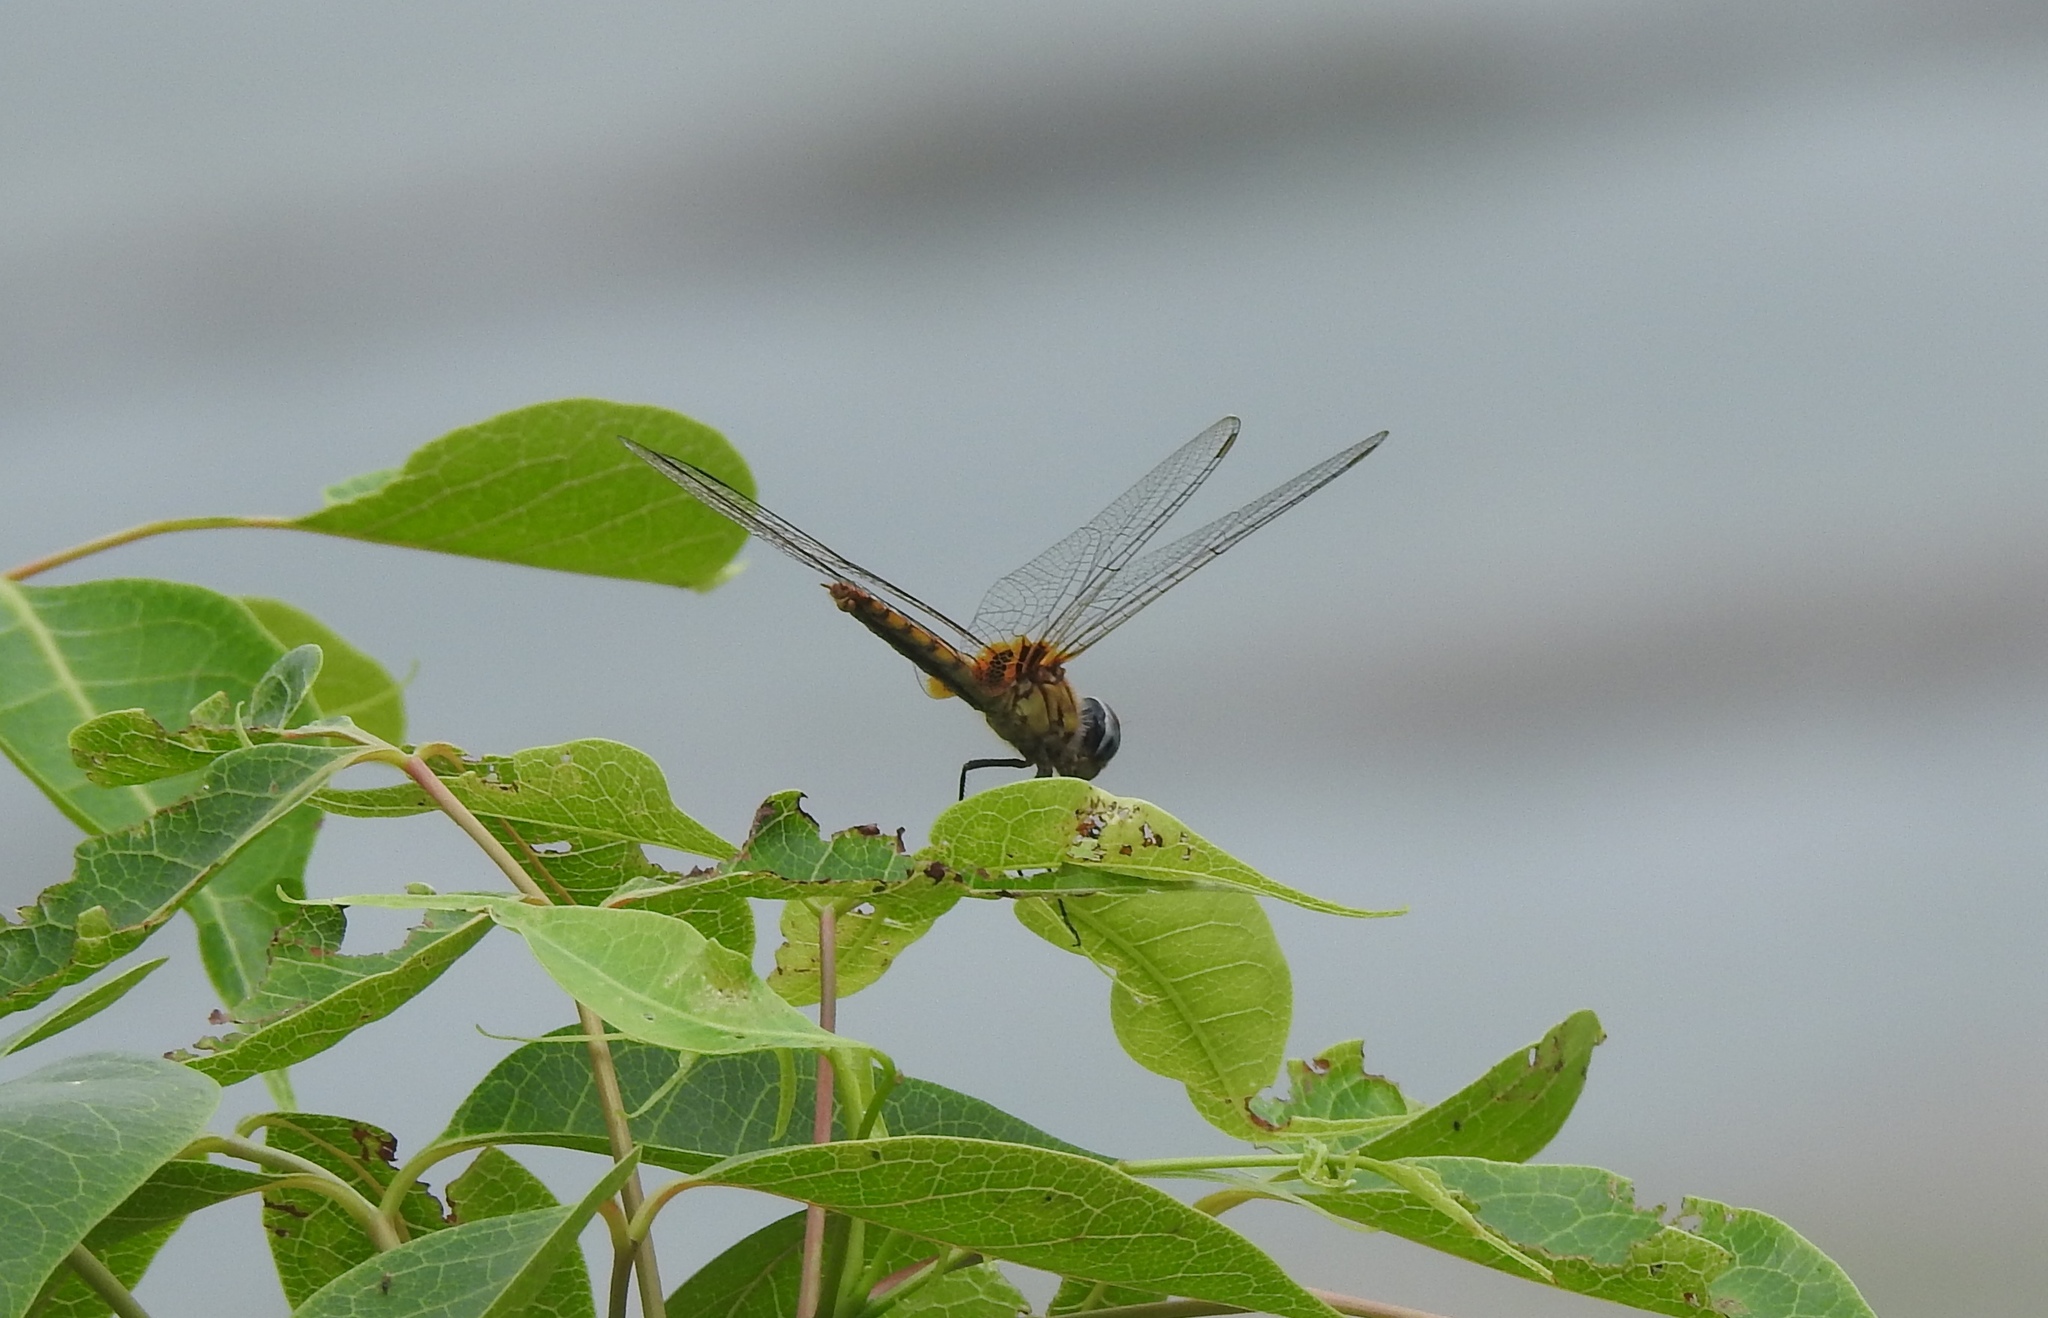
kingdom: Animalia
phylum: Arthropoda
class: Insecta
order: Odonata
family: Libellulidae
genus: Urothemis
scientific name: Urothemis signata
